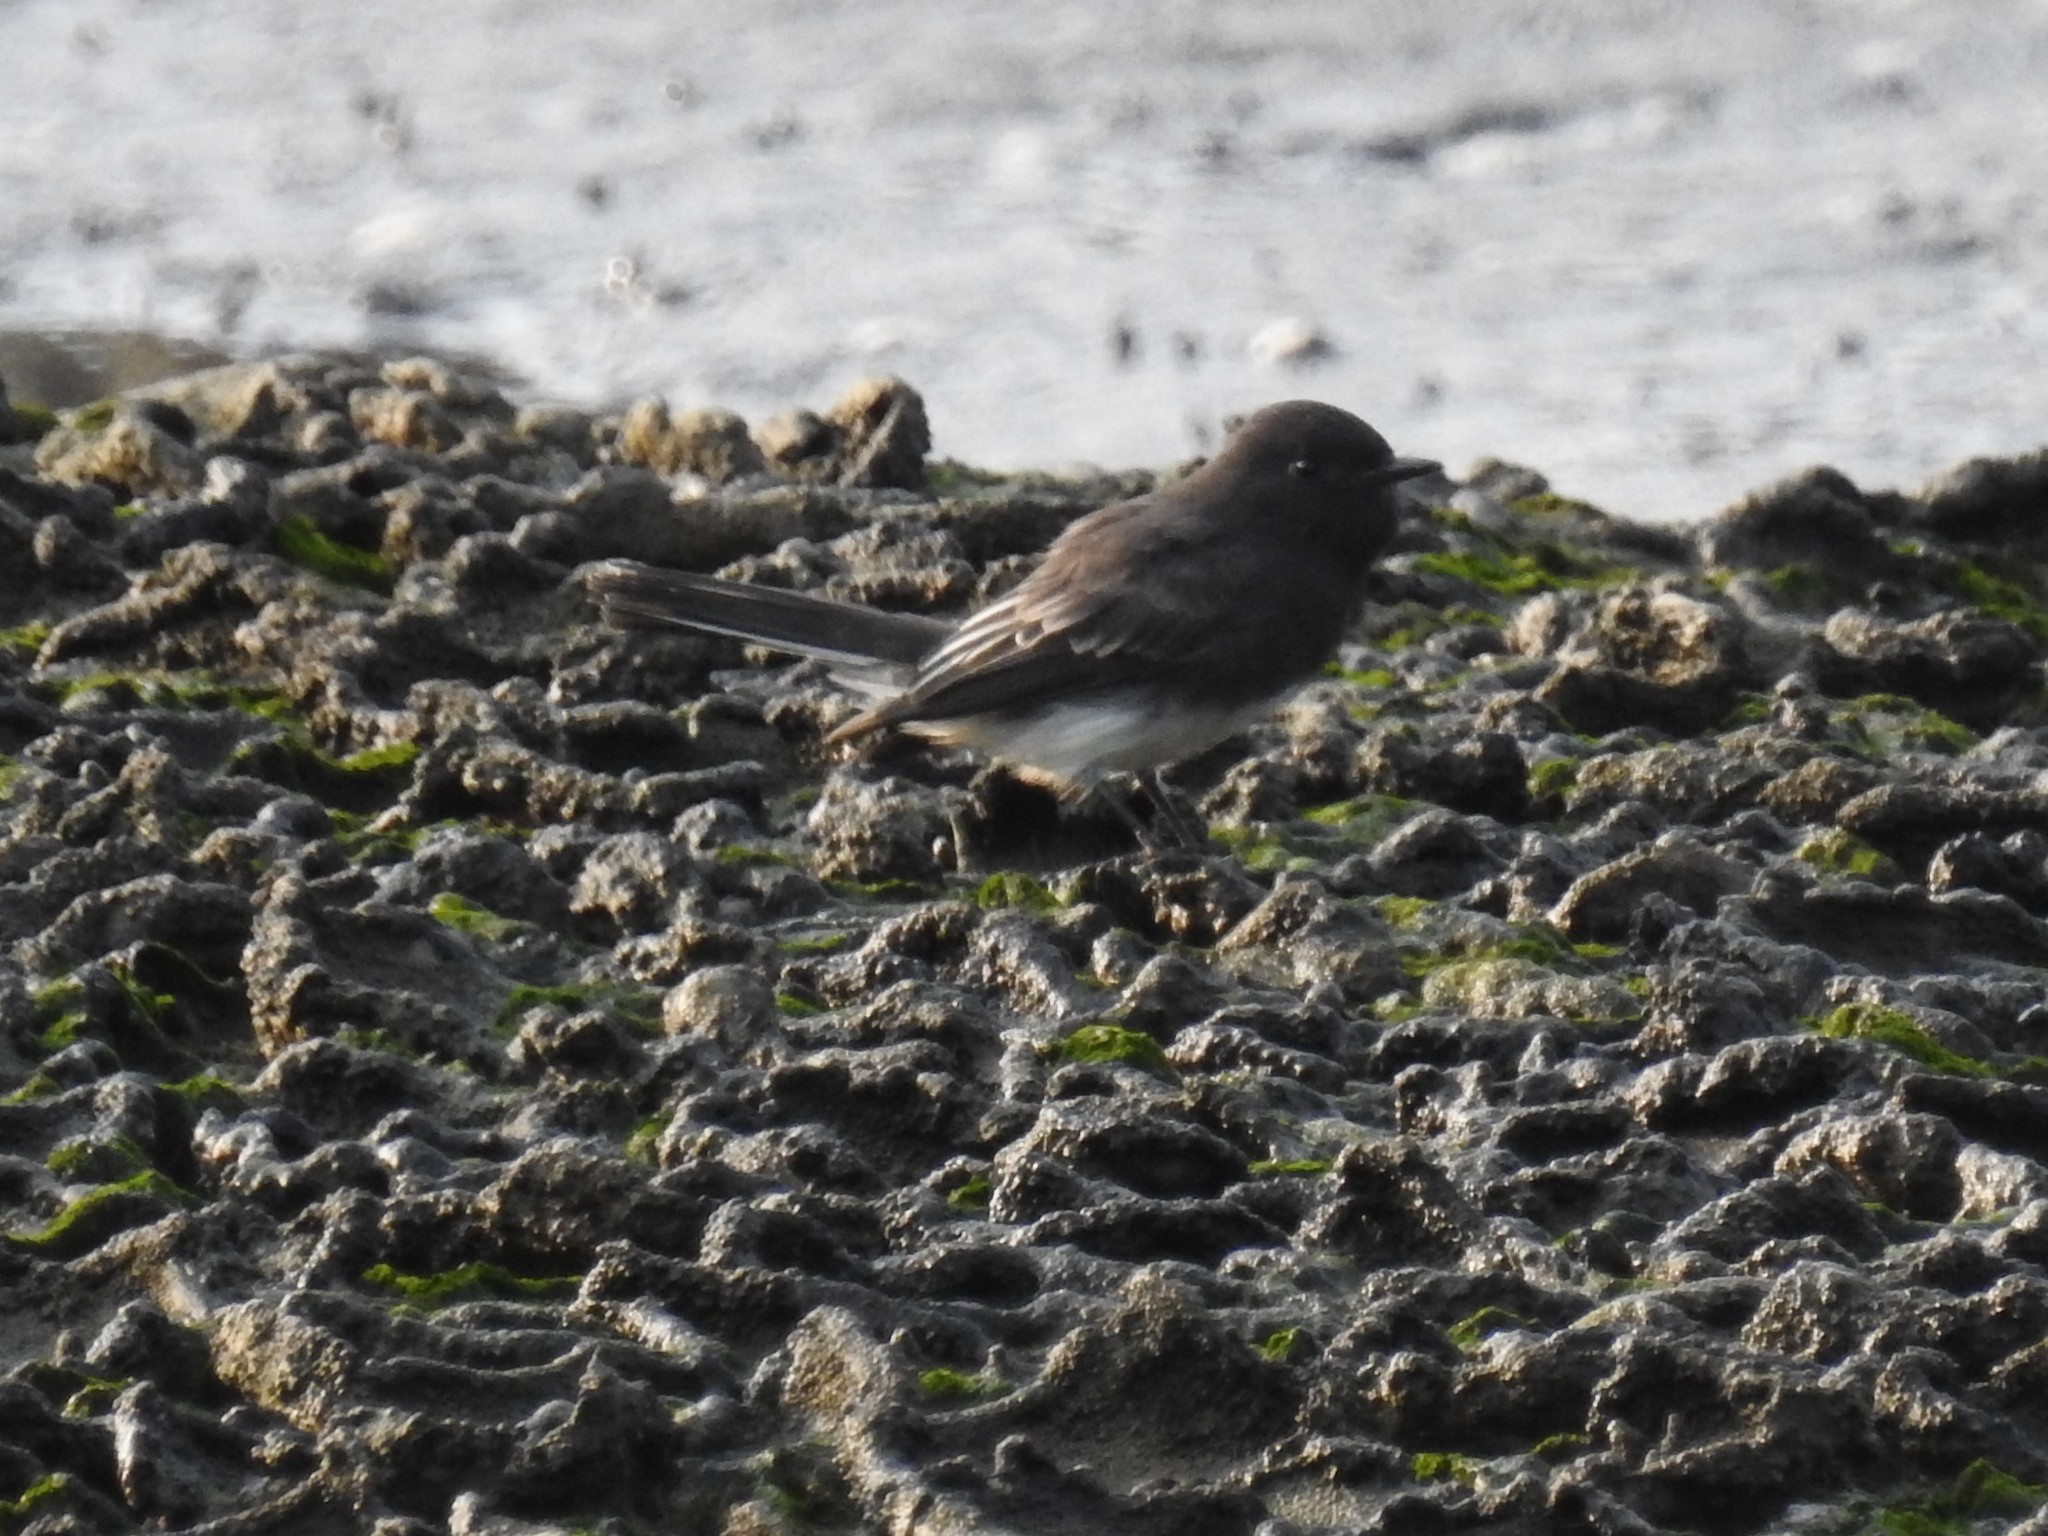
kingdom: Animalia
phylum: Chordata
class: Aves
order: Passeriformes
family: Tyrannidae
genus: Sayornis
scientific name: Sayornis nigricans
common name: Black phoebe
